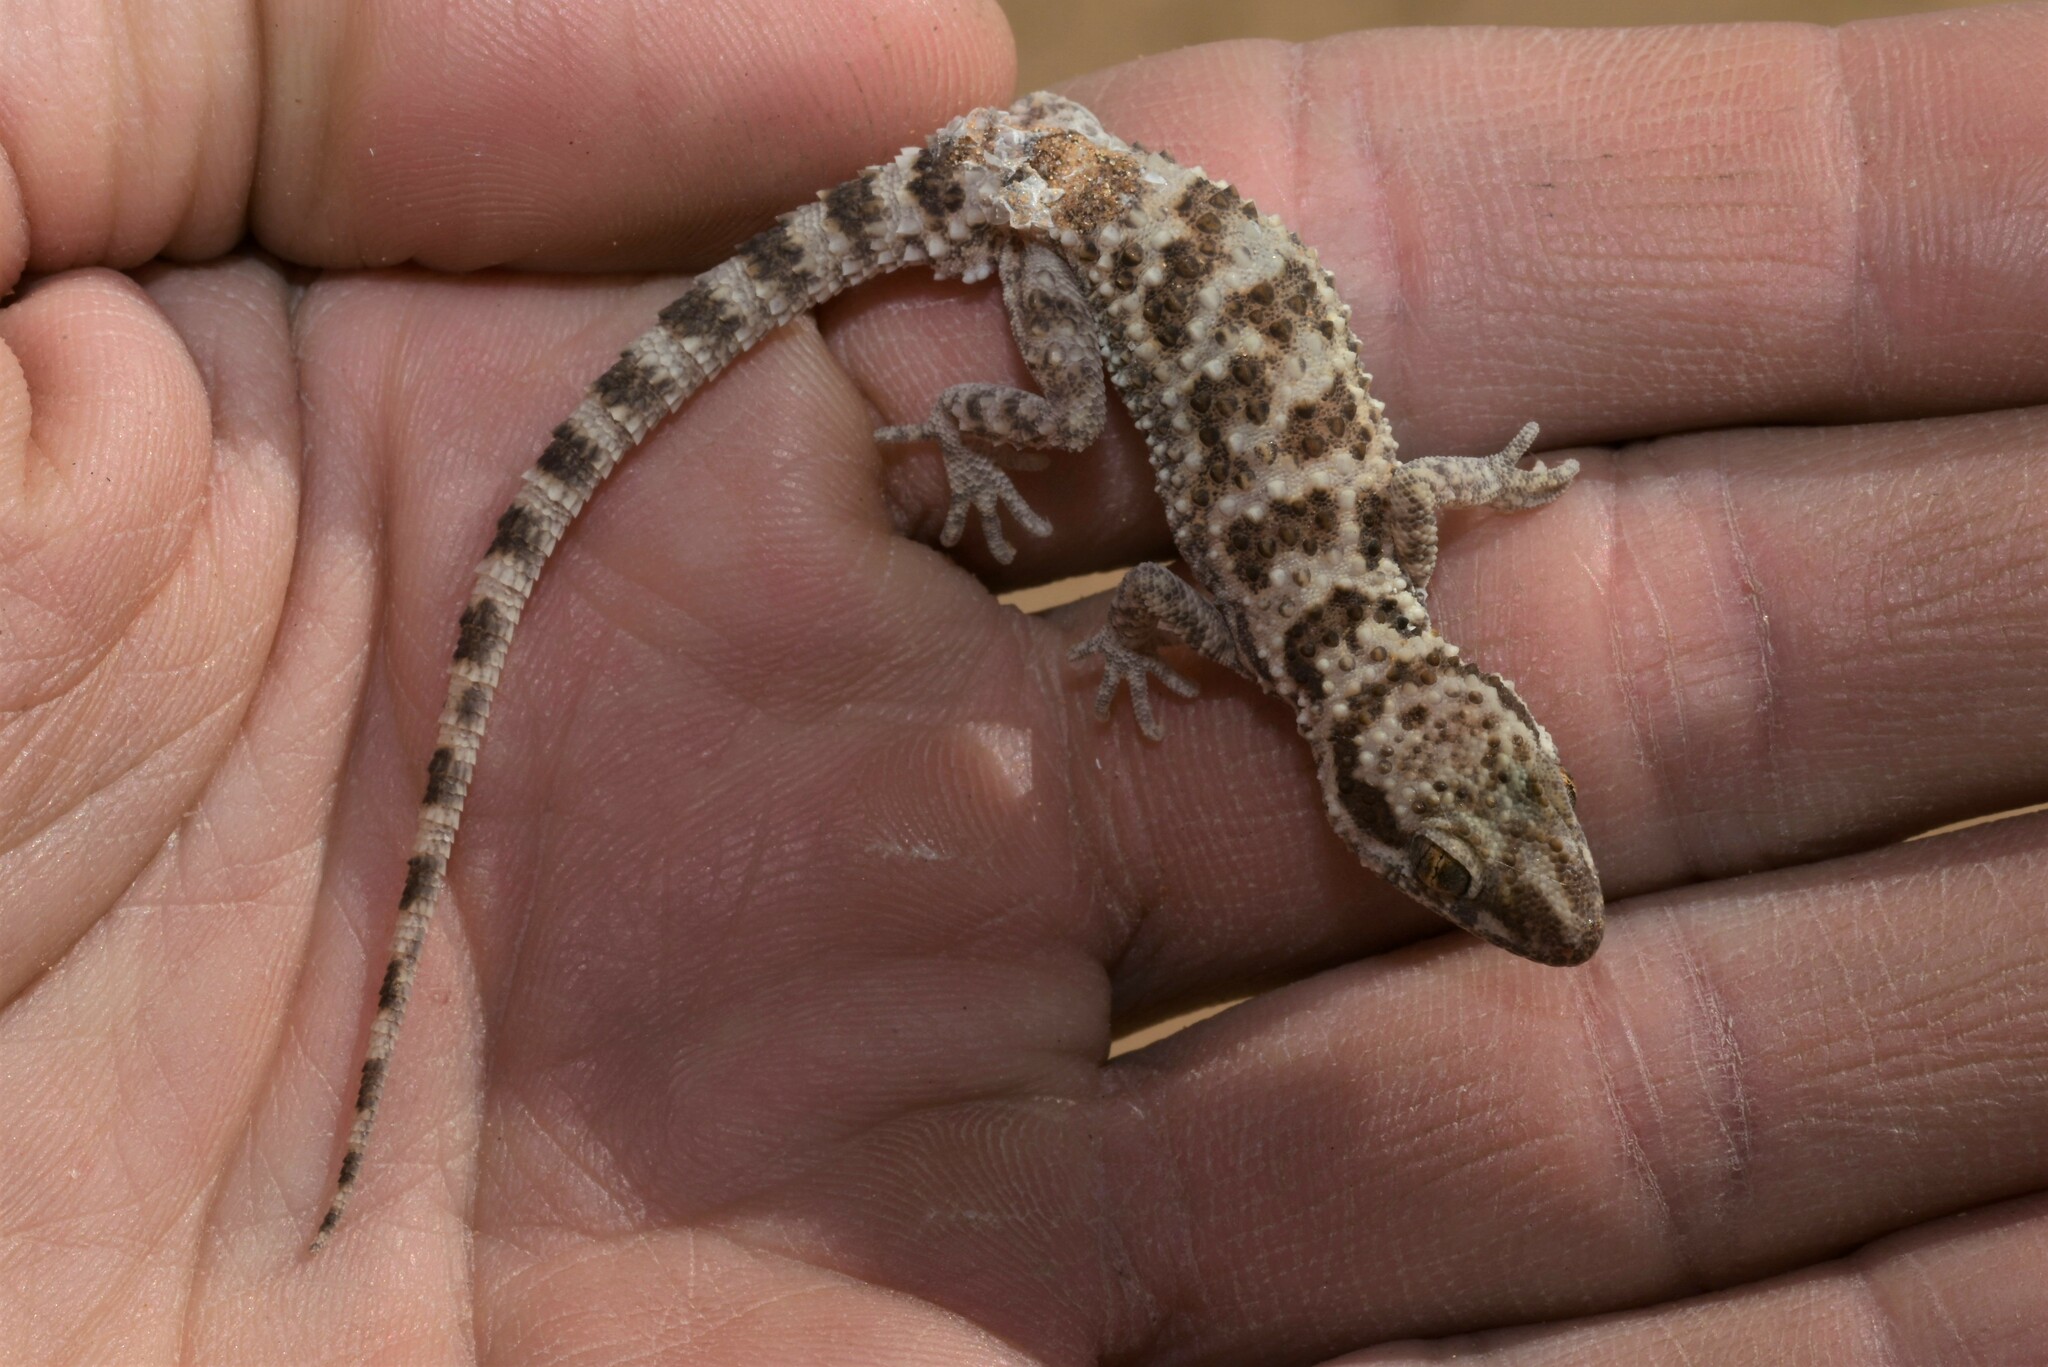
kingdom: Animalia
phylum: Chordata
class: Squamata
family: Gekkonidae
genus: Bunopus
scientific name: Bunopus tuberculatus
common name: Southern tuberculated gecko
